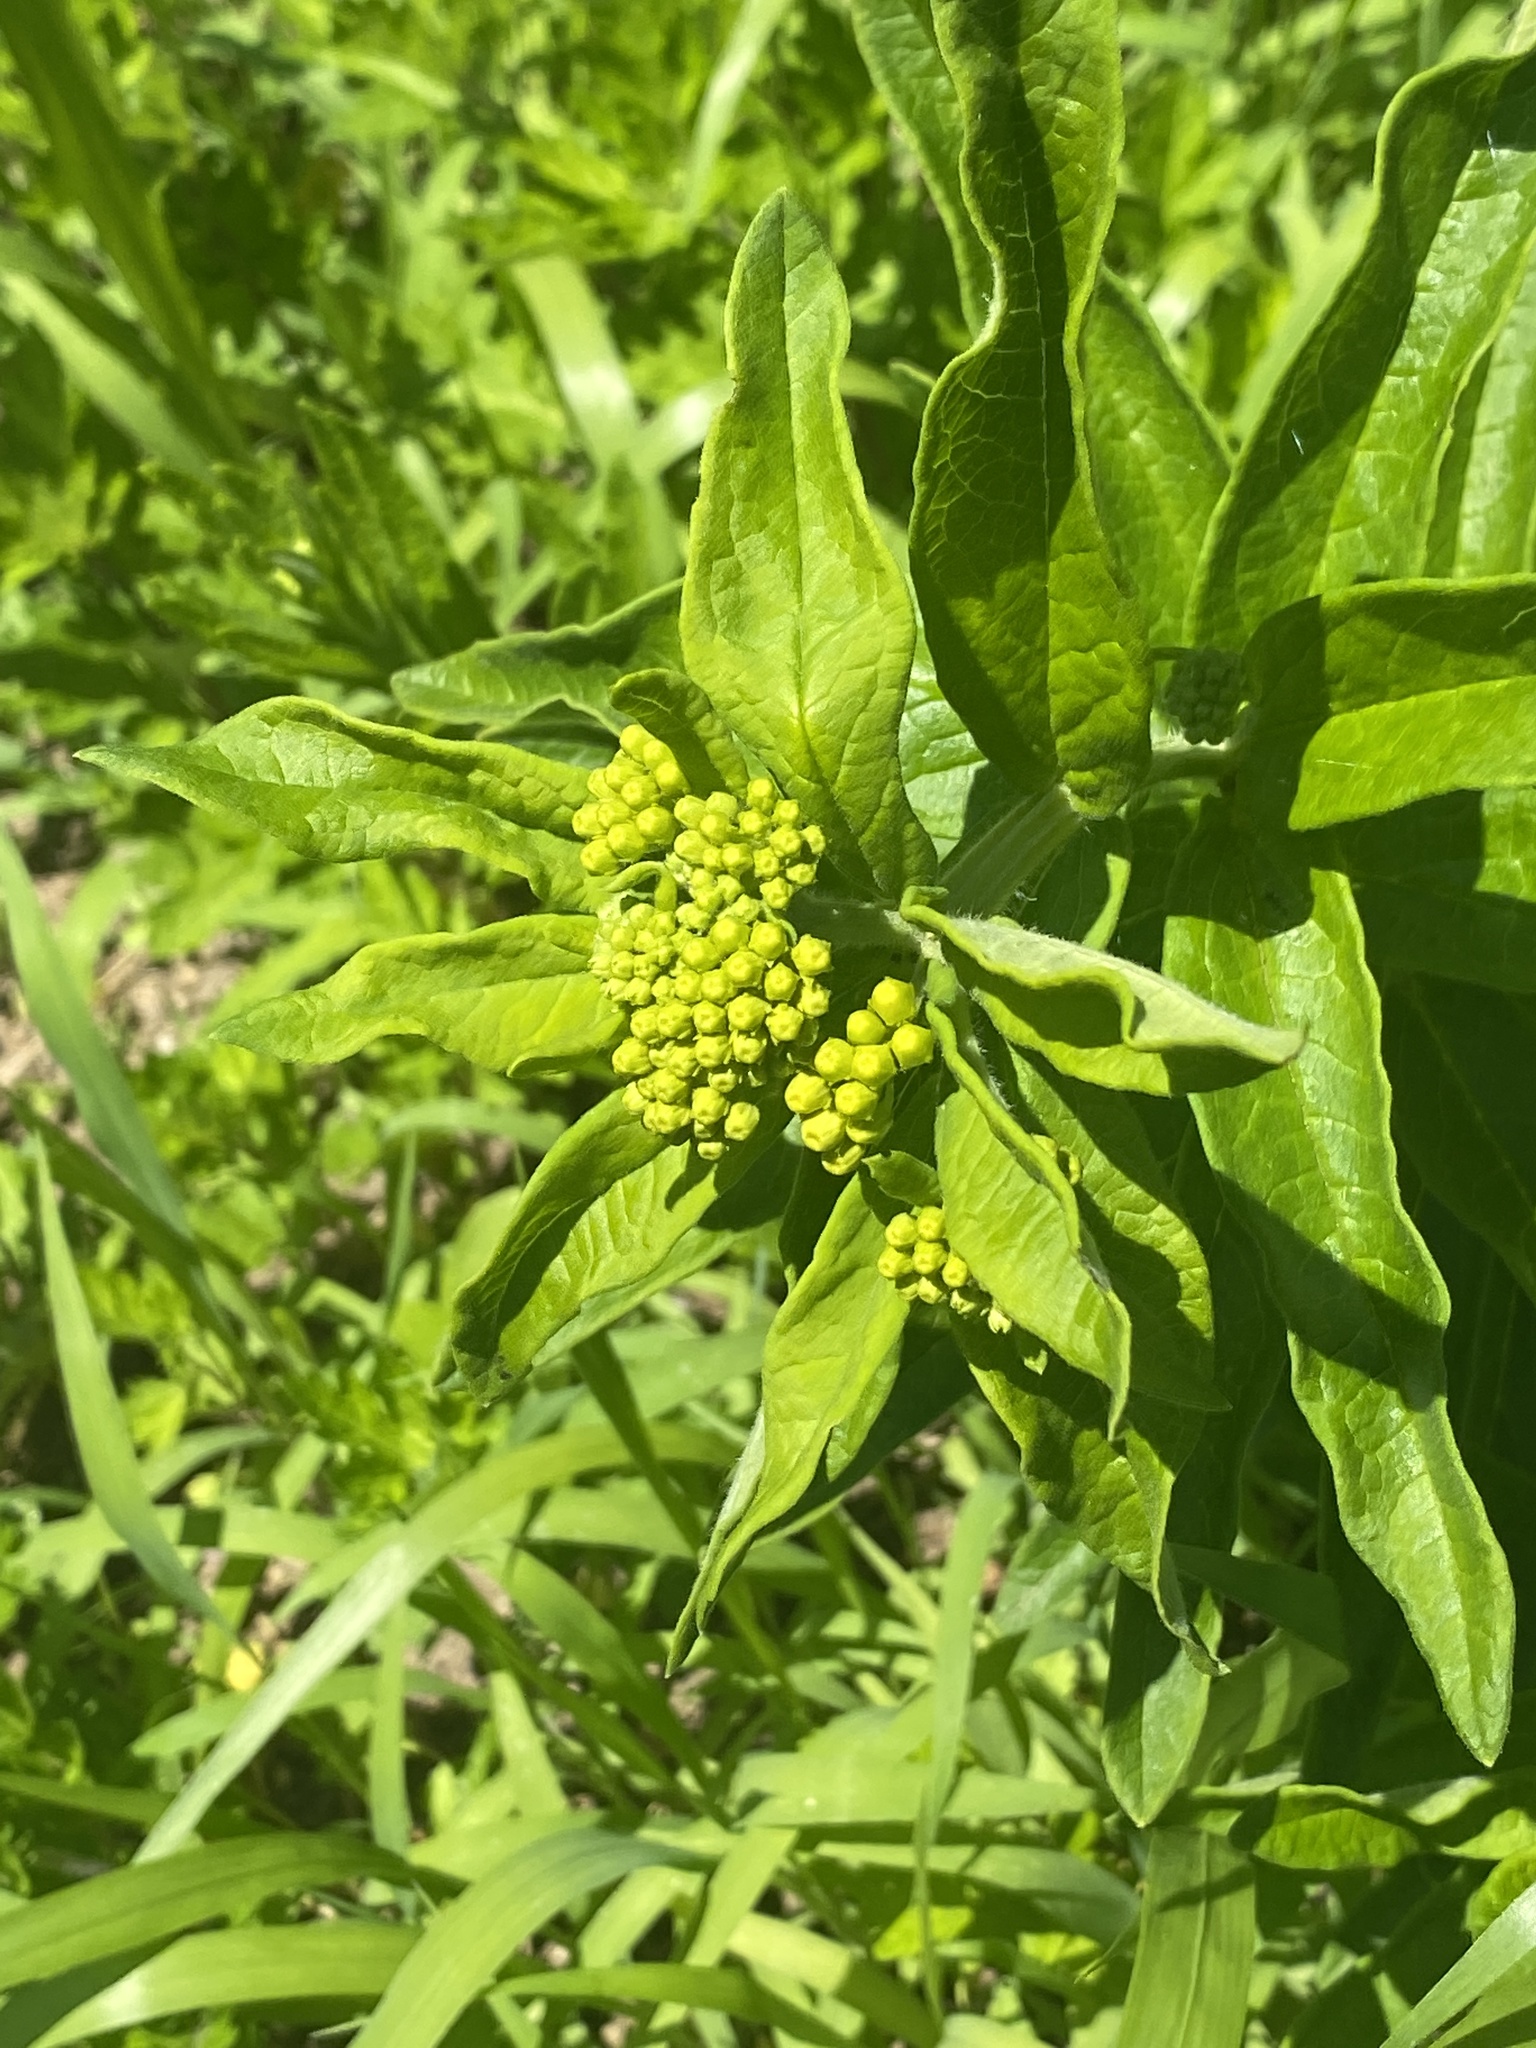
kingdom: Plantae
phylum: Tracheophyta
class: Magnoliopsida
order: Gentianales
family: Apocynaceae
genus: Asclepias
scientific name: Asclepias tuberosa
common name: Butterfly milkweed
